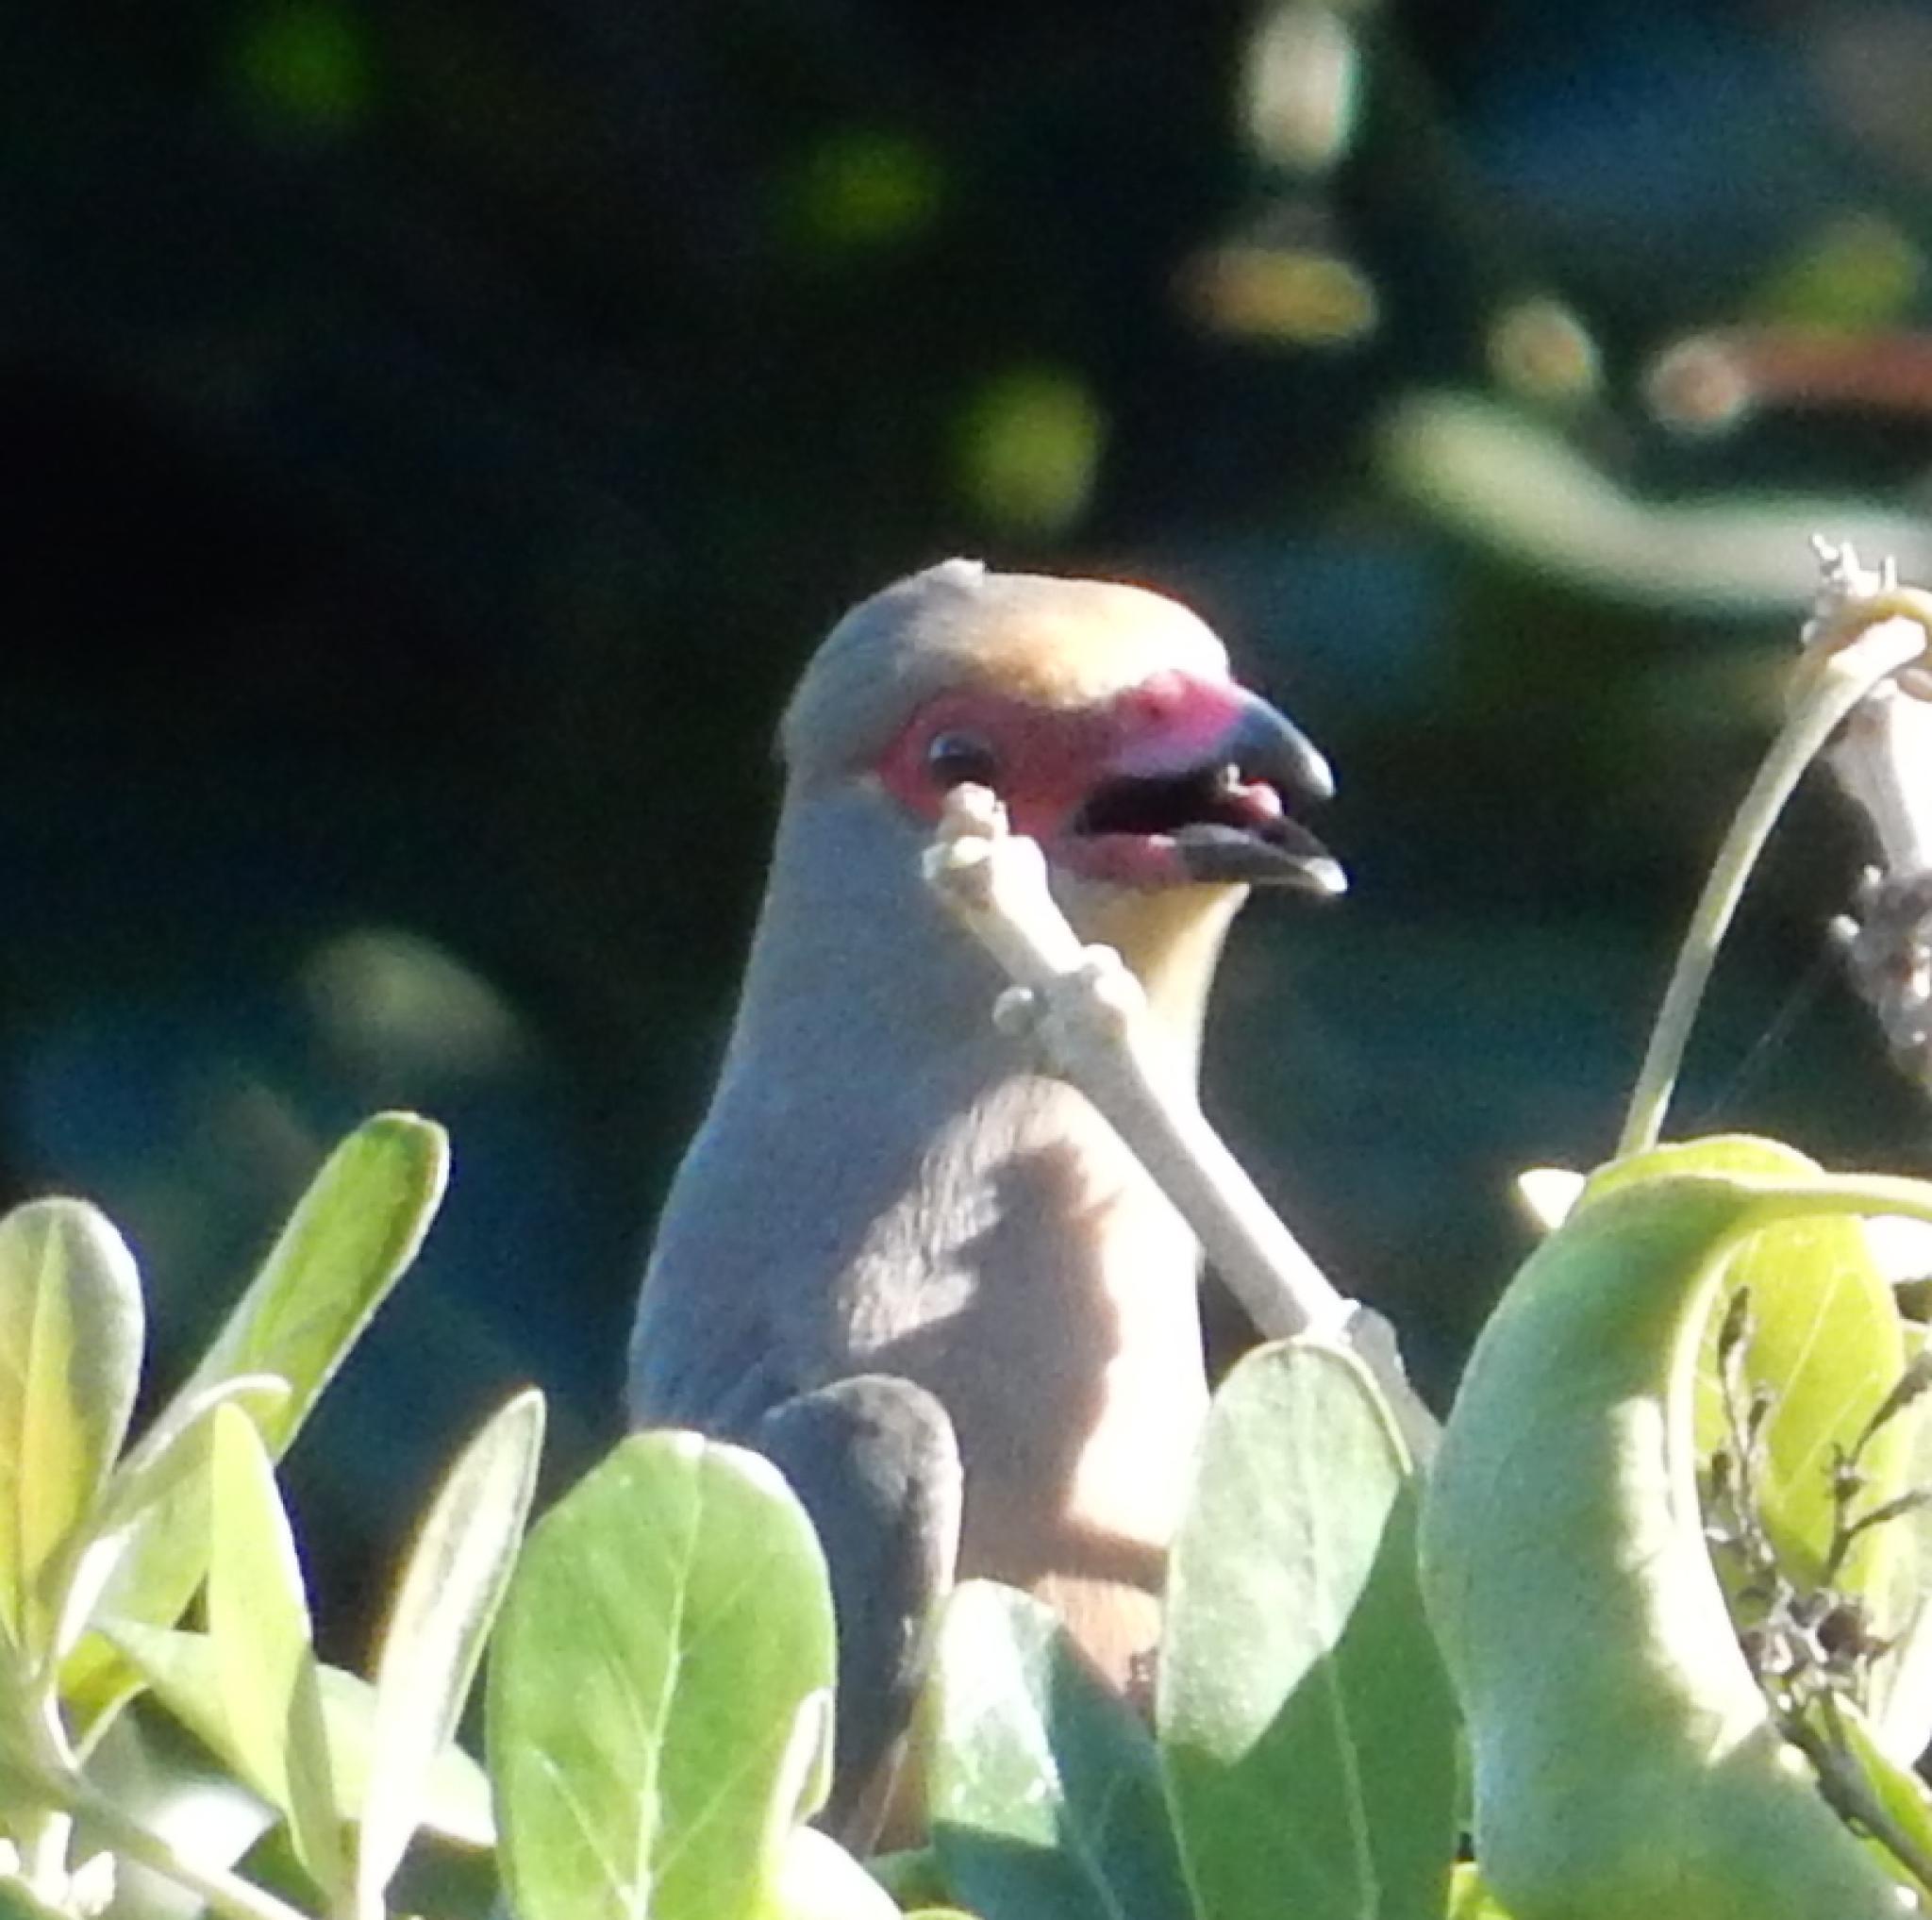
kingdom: Animalia
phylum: Chordata
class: Aves
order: Coliiformes
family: Coliidae
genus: Urocolius
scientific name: Urocolius indicus
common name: Red-faced mousebird
